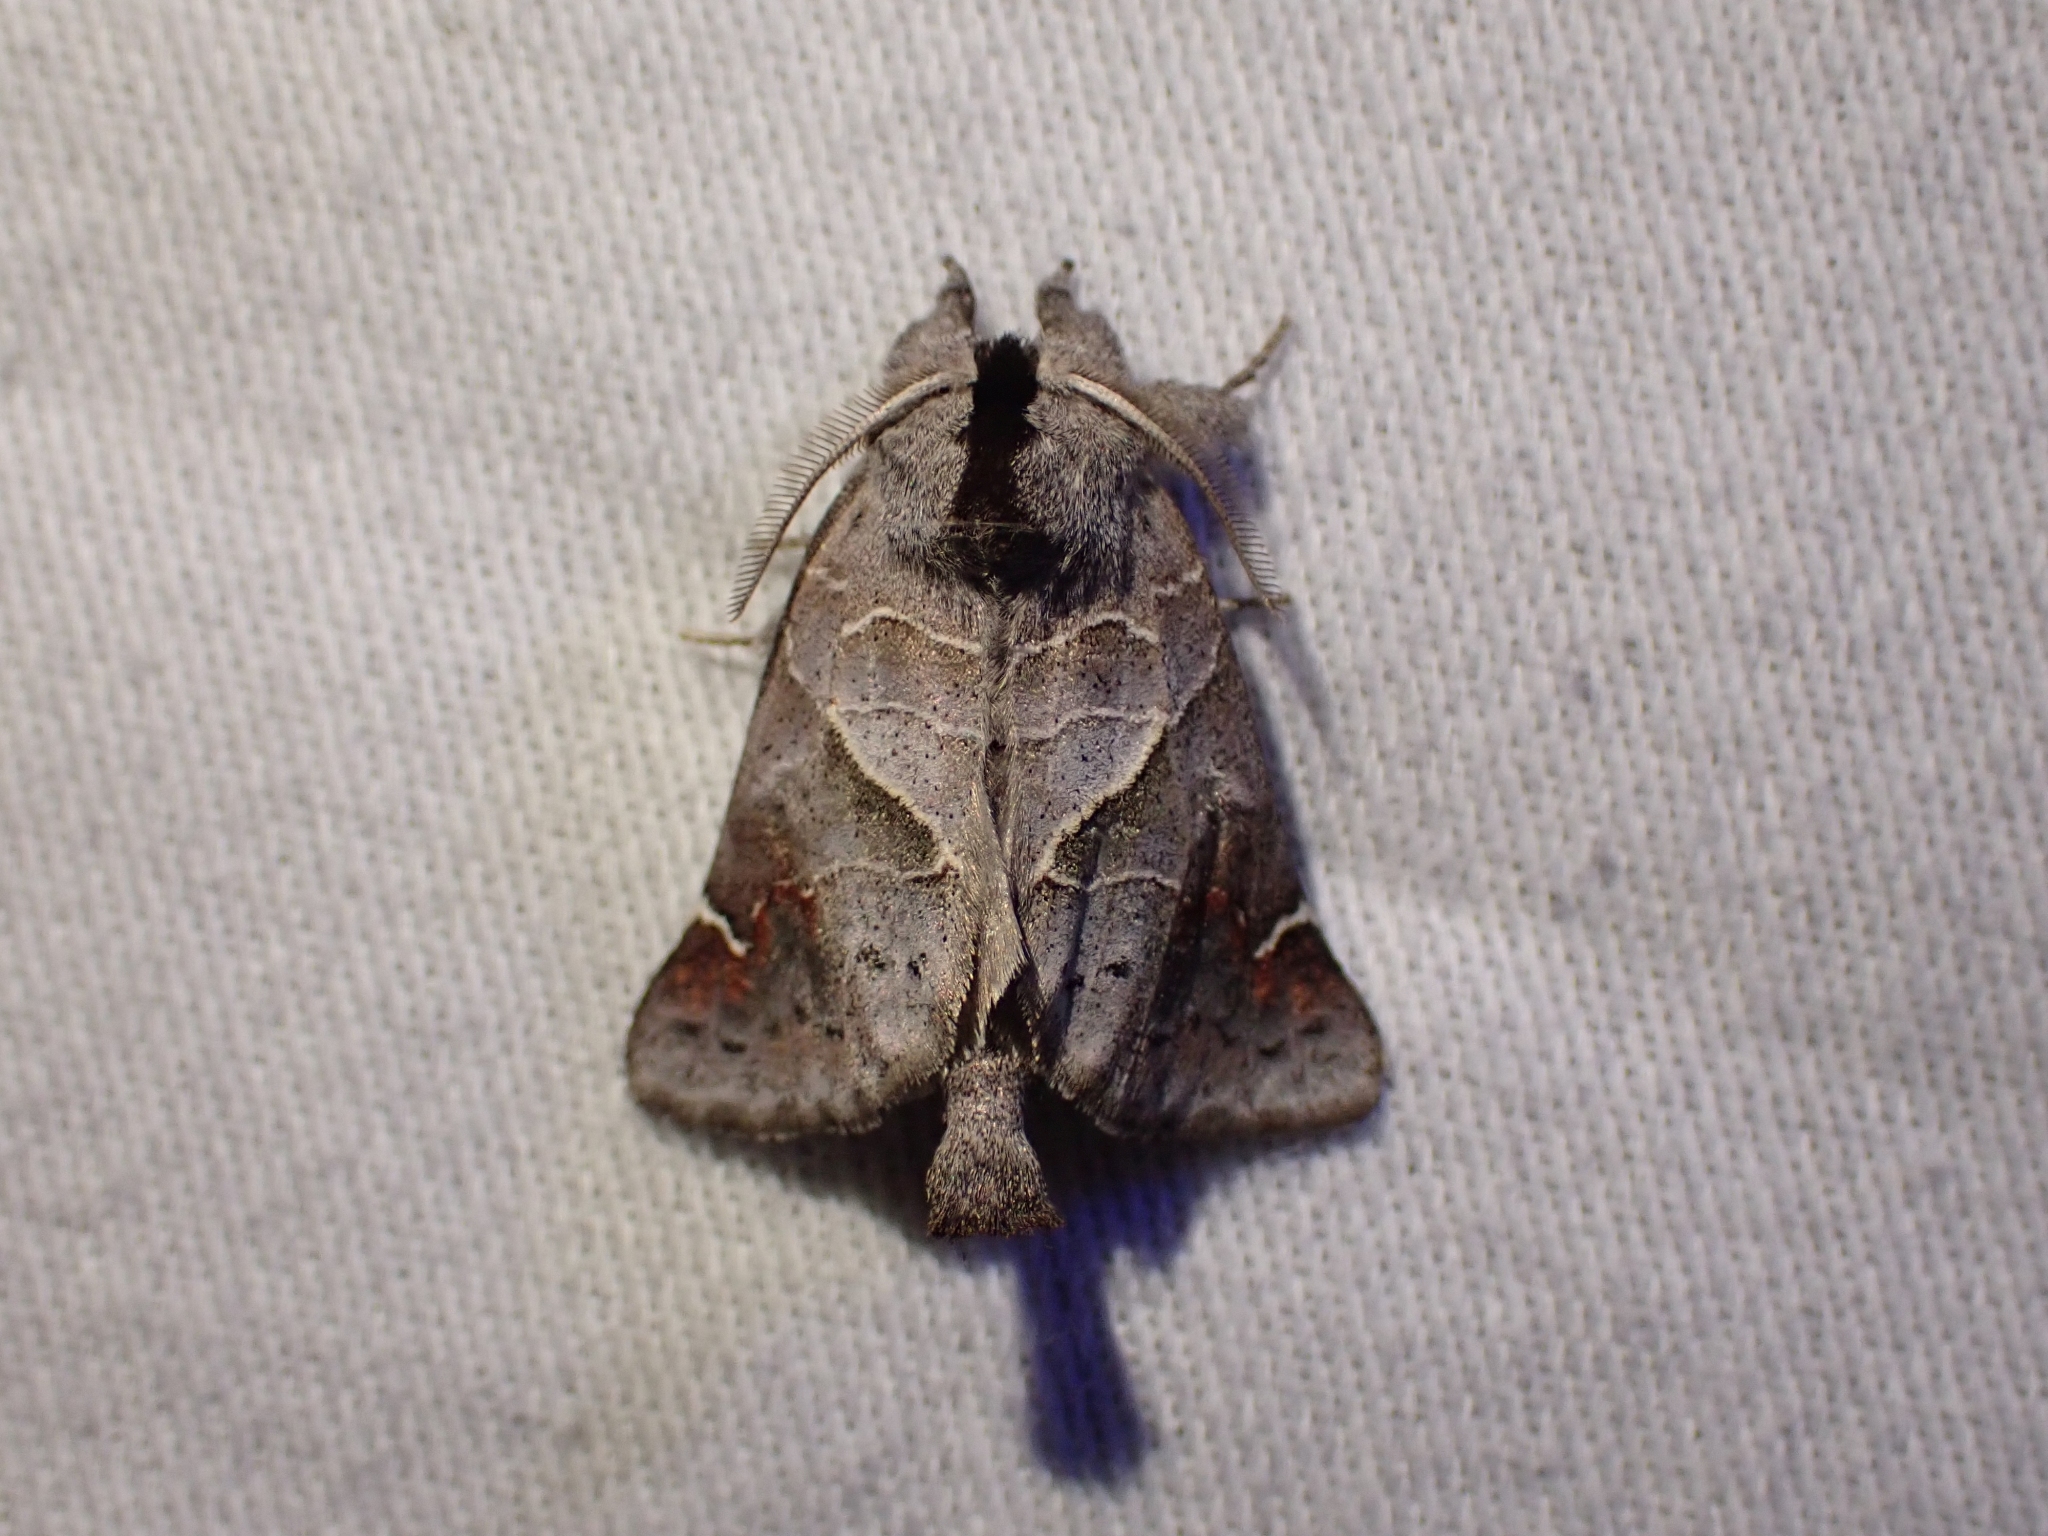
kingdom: Animalia
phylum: Arthropoda
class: Insecta
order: Lepidoptera
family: Notodontidae
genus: Clostera
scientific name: Clostera apicalis
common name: Apical prominent
